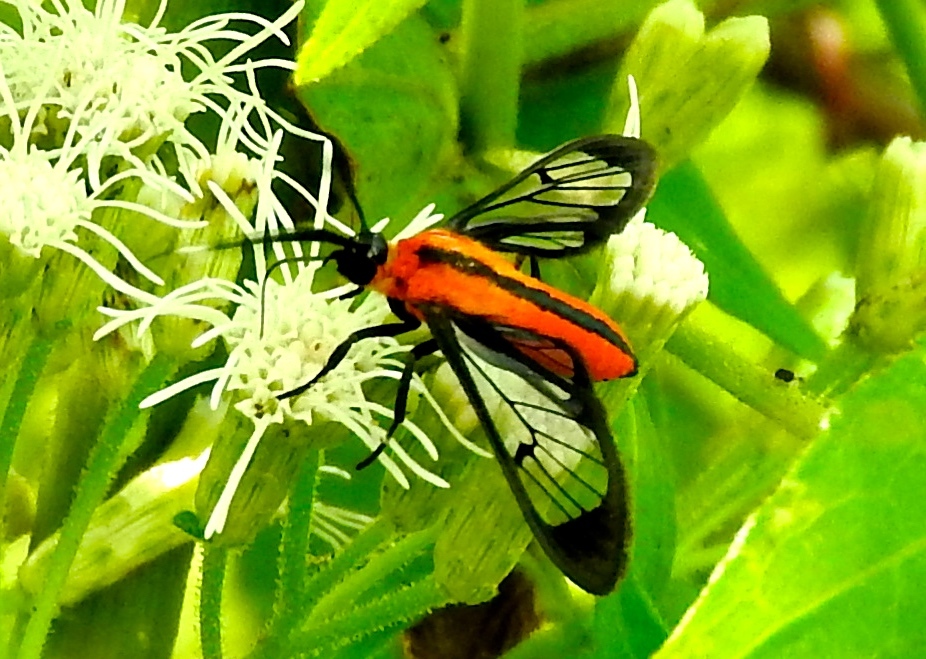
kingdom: Animalia
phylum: Arthropoda
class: Insecta
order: Lepidoptera
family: Erebidae
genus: Loxophlebia
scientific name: Loxophlebia
